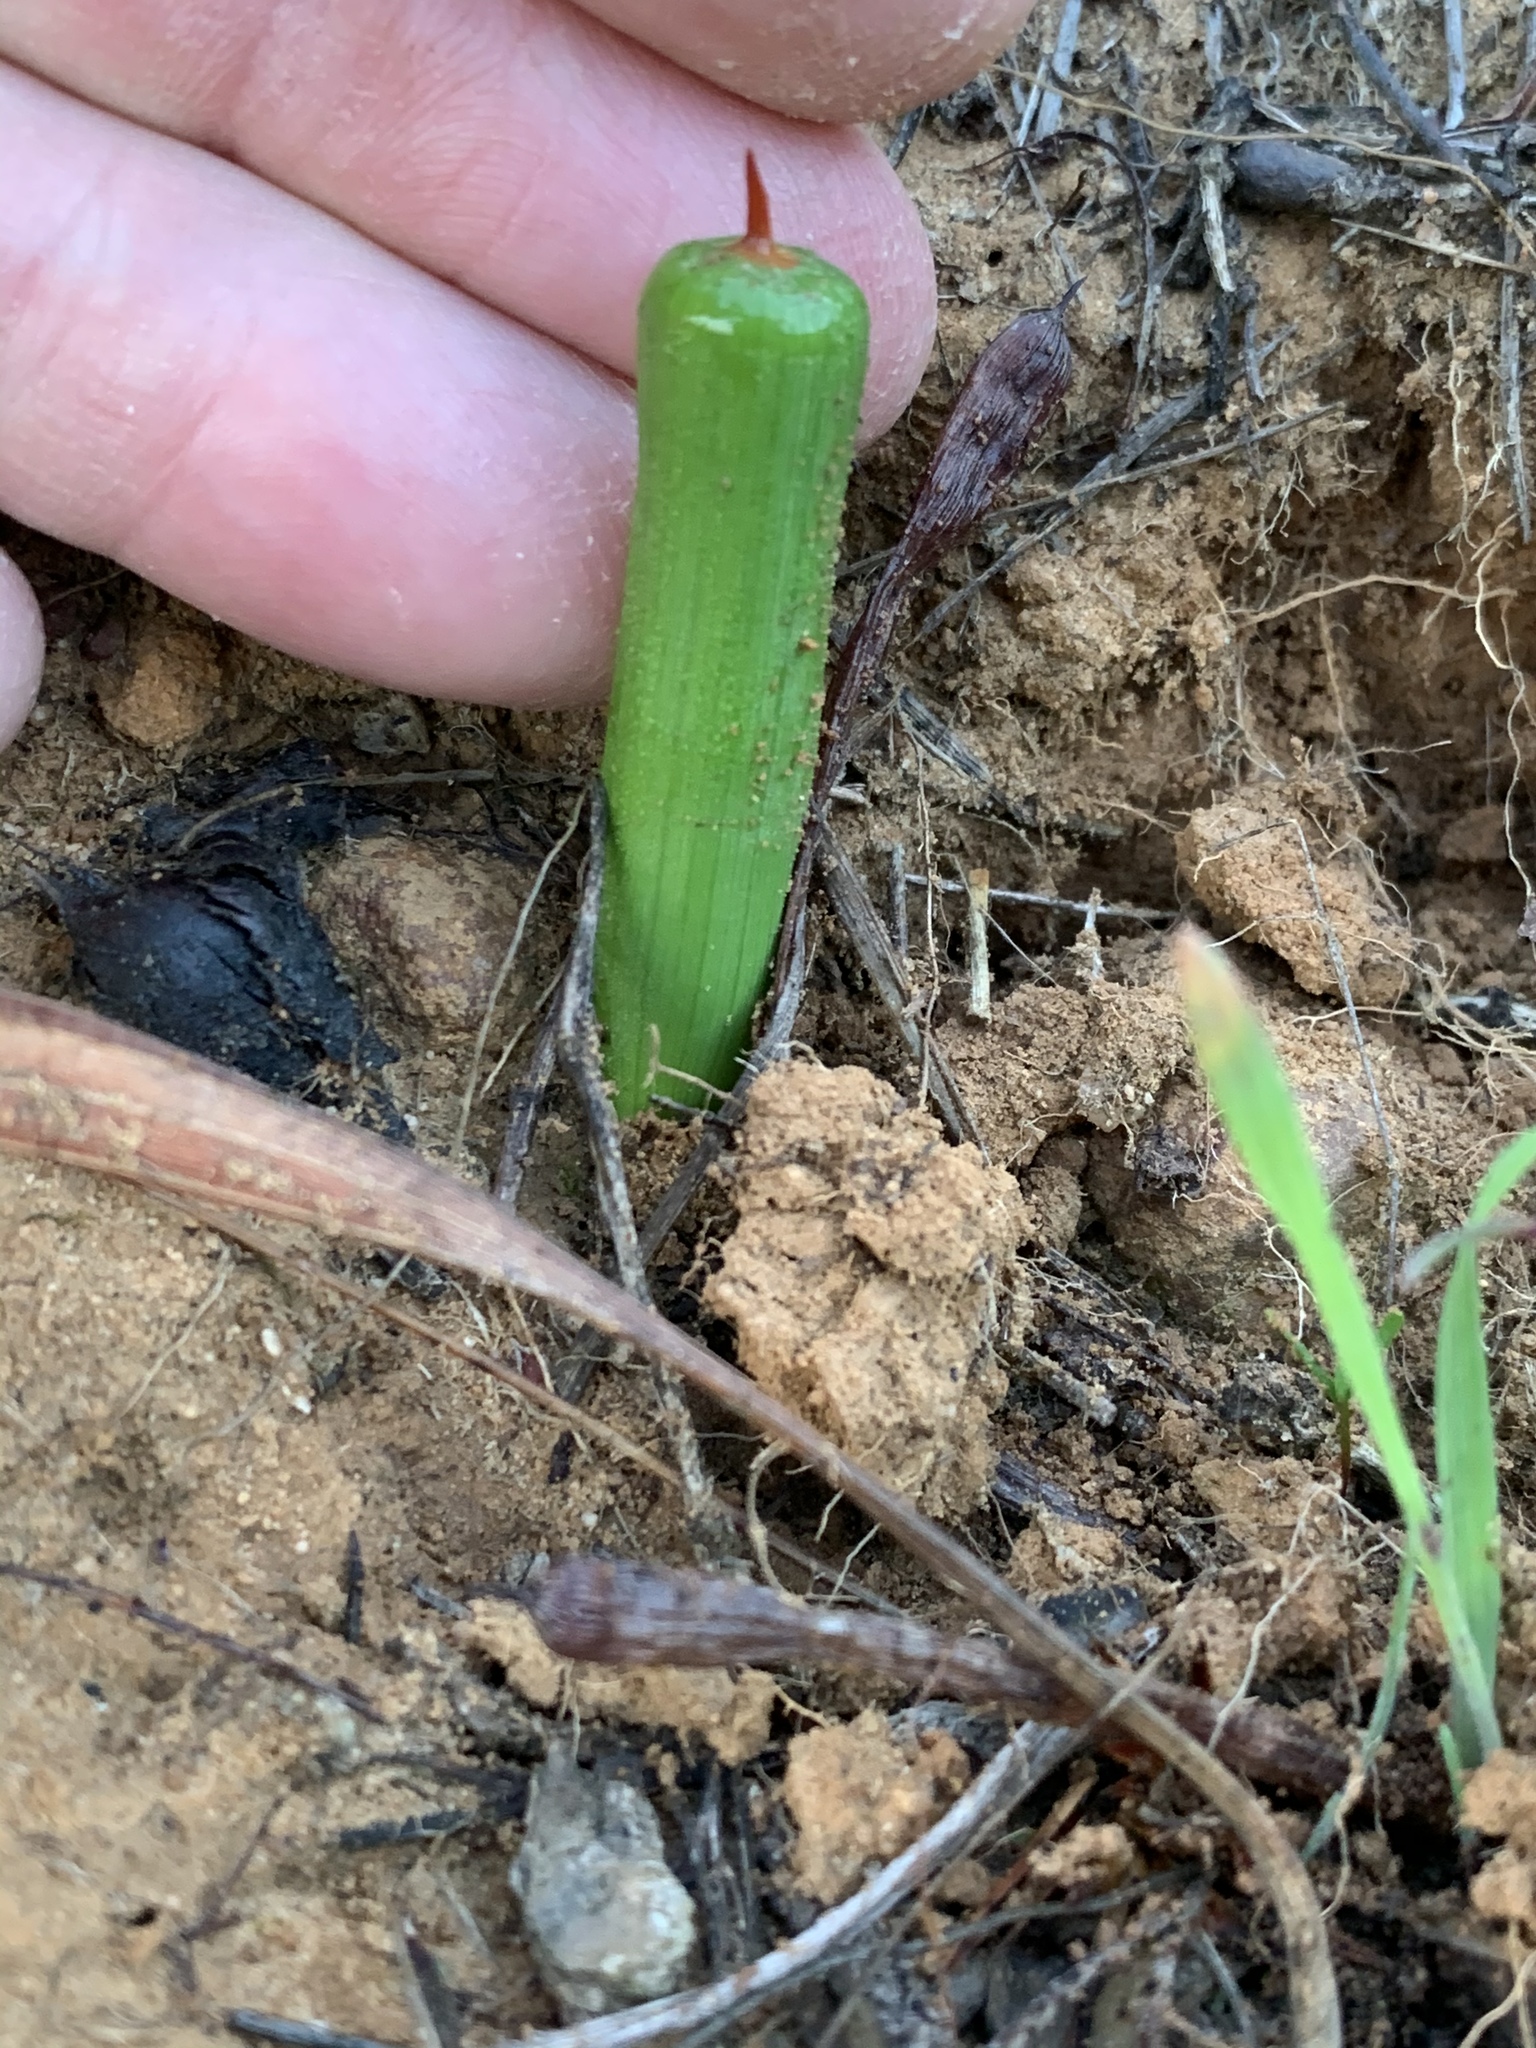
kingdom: Plantae
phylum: Tracheophyta
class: Liliopsida
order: Asparagales
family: Iridaceae
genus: Micranthus
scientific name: Micranthus tubulosus
